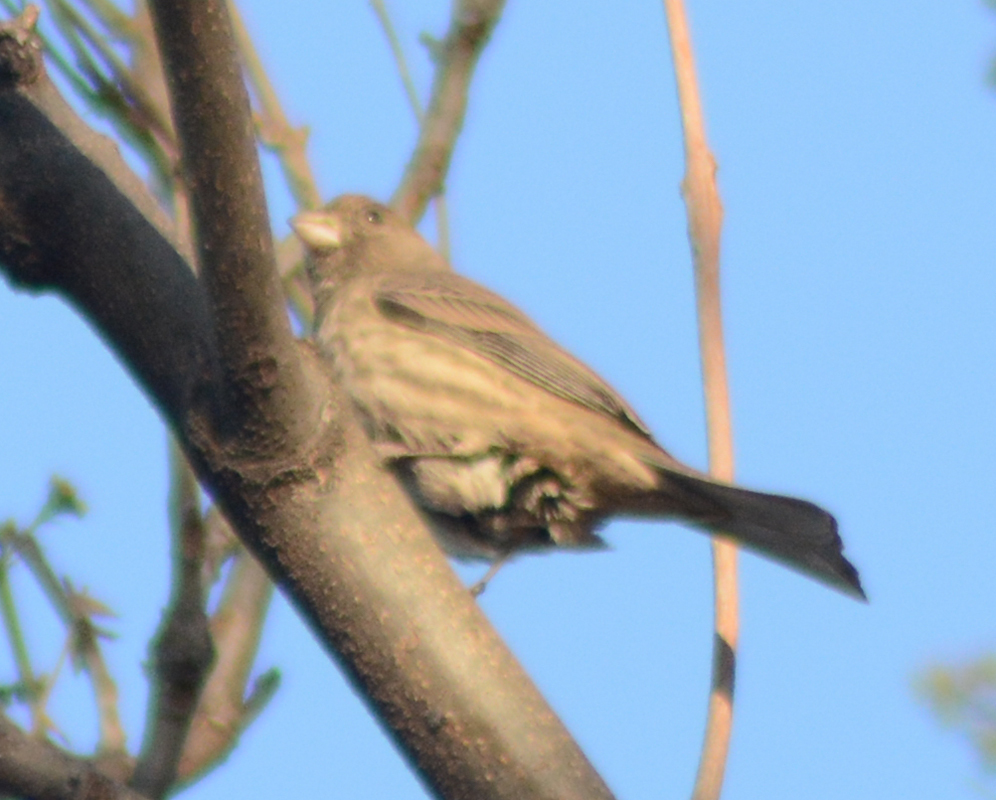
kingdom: Animalia
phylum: Chordata
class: Aves
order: Passeriformes
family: Fringillidae
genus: Haemorhous
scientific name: Haemorhous mexicanus
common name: House finch
